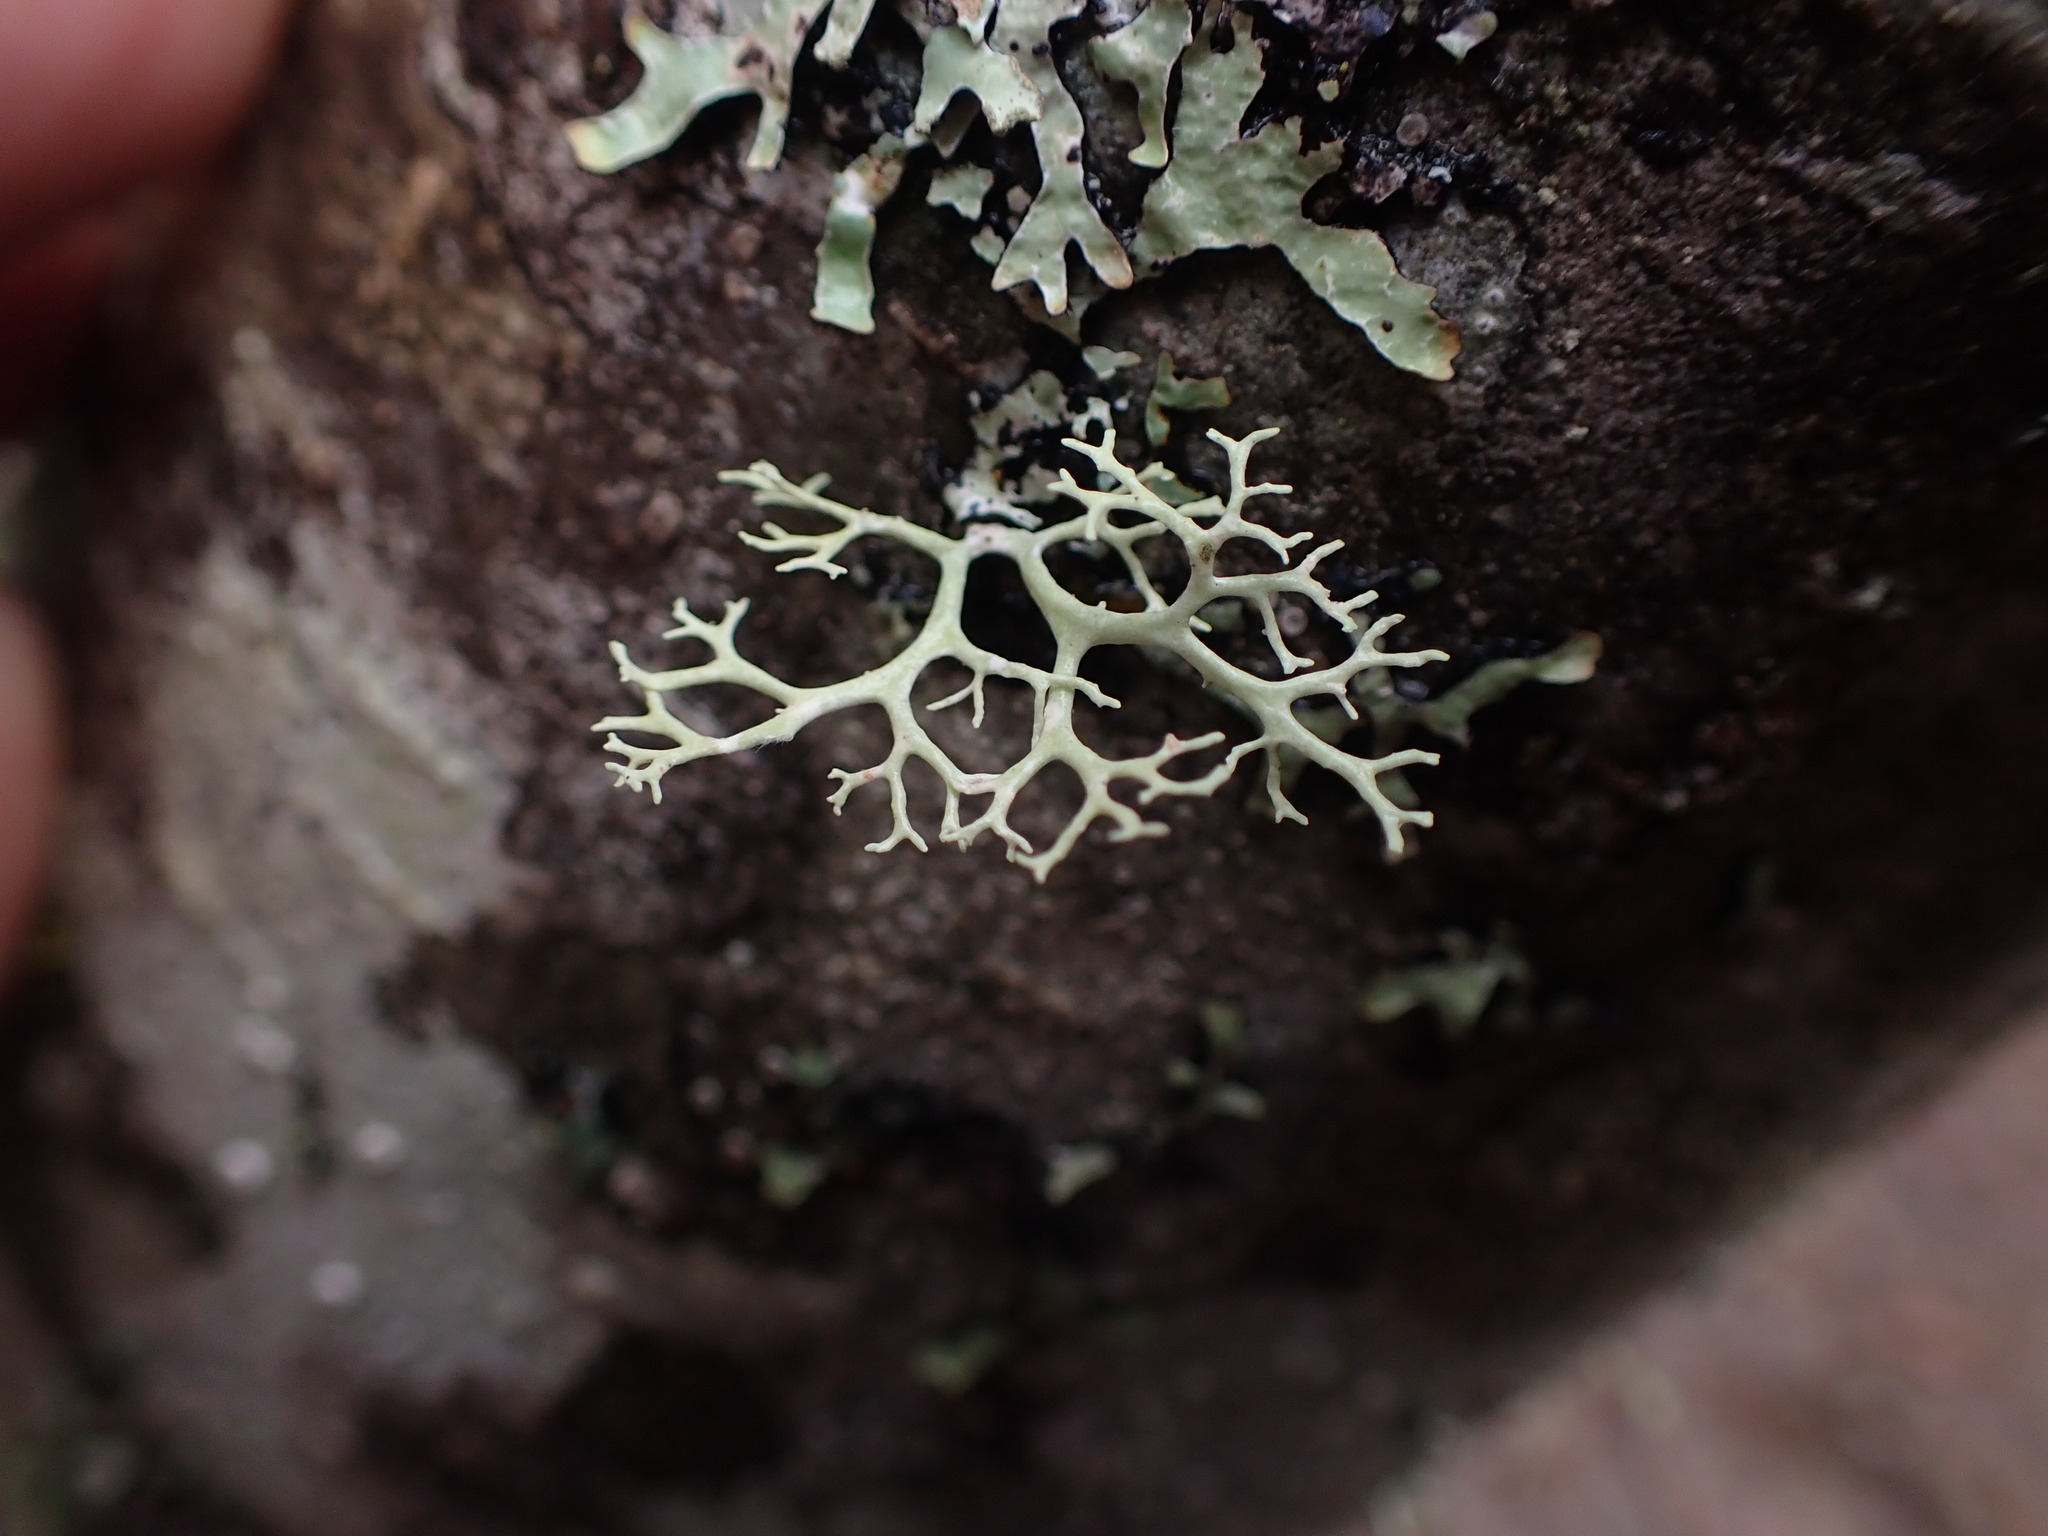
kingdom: Fungi
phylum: Ascomycota
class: Lecanoromycetes
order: Lecanorales
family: Parmeliaceae
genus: Evernia
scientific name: Evernia prunastri
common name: Oak moss
